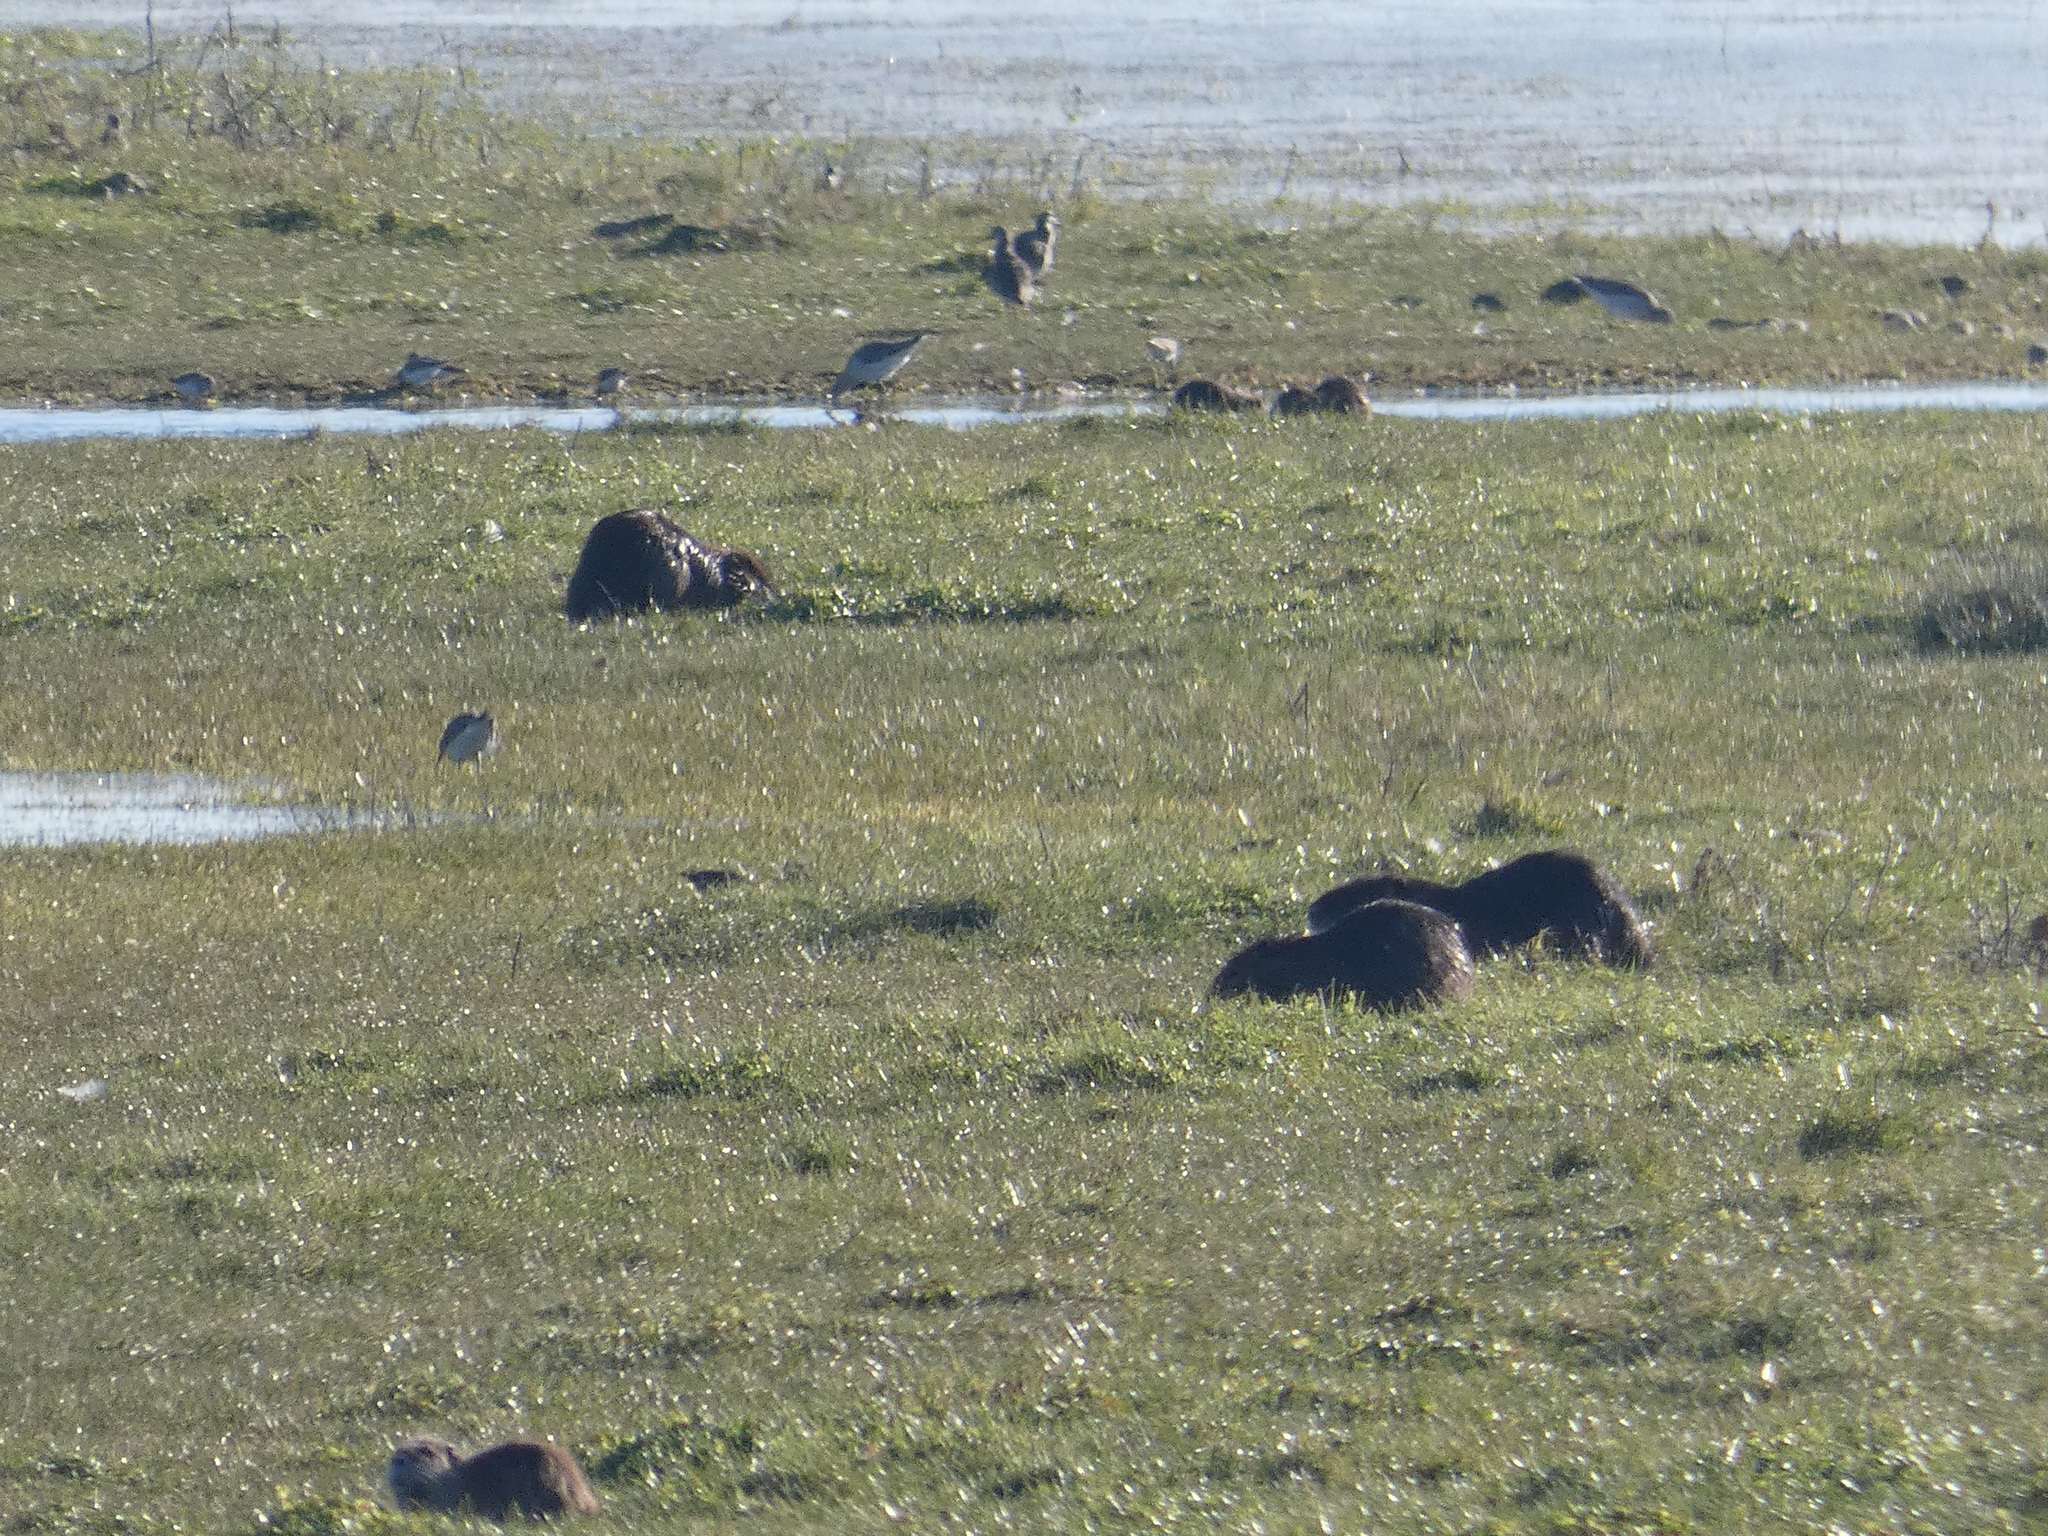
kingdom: Animalia
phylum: Chordata
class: Mammalia
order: Rodentia
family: Myocastoridae
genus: Myocastor
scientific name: Myocastor coypus
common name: Coypu
